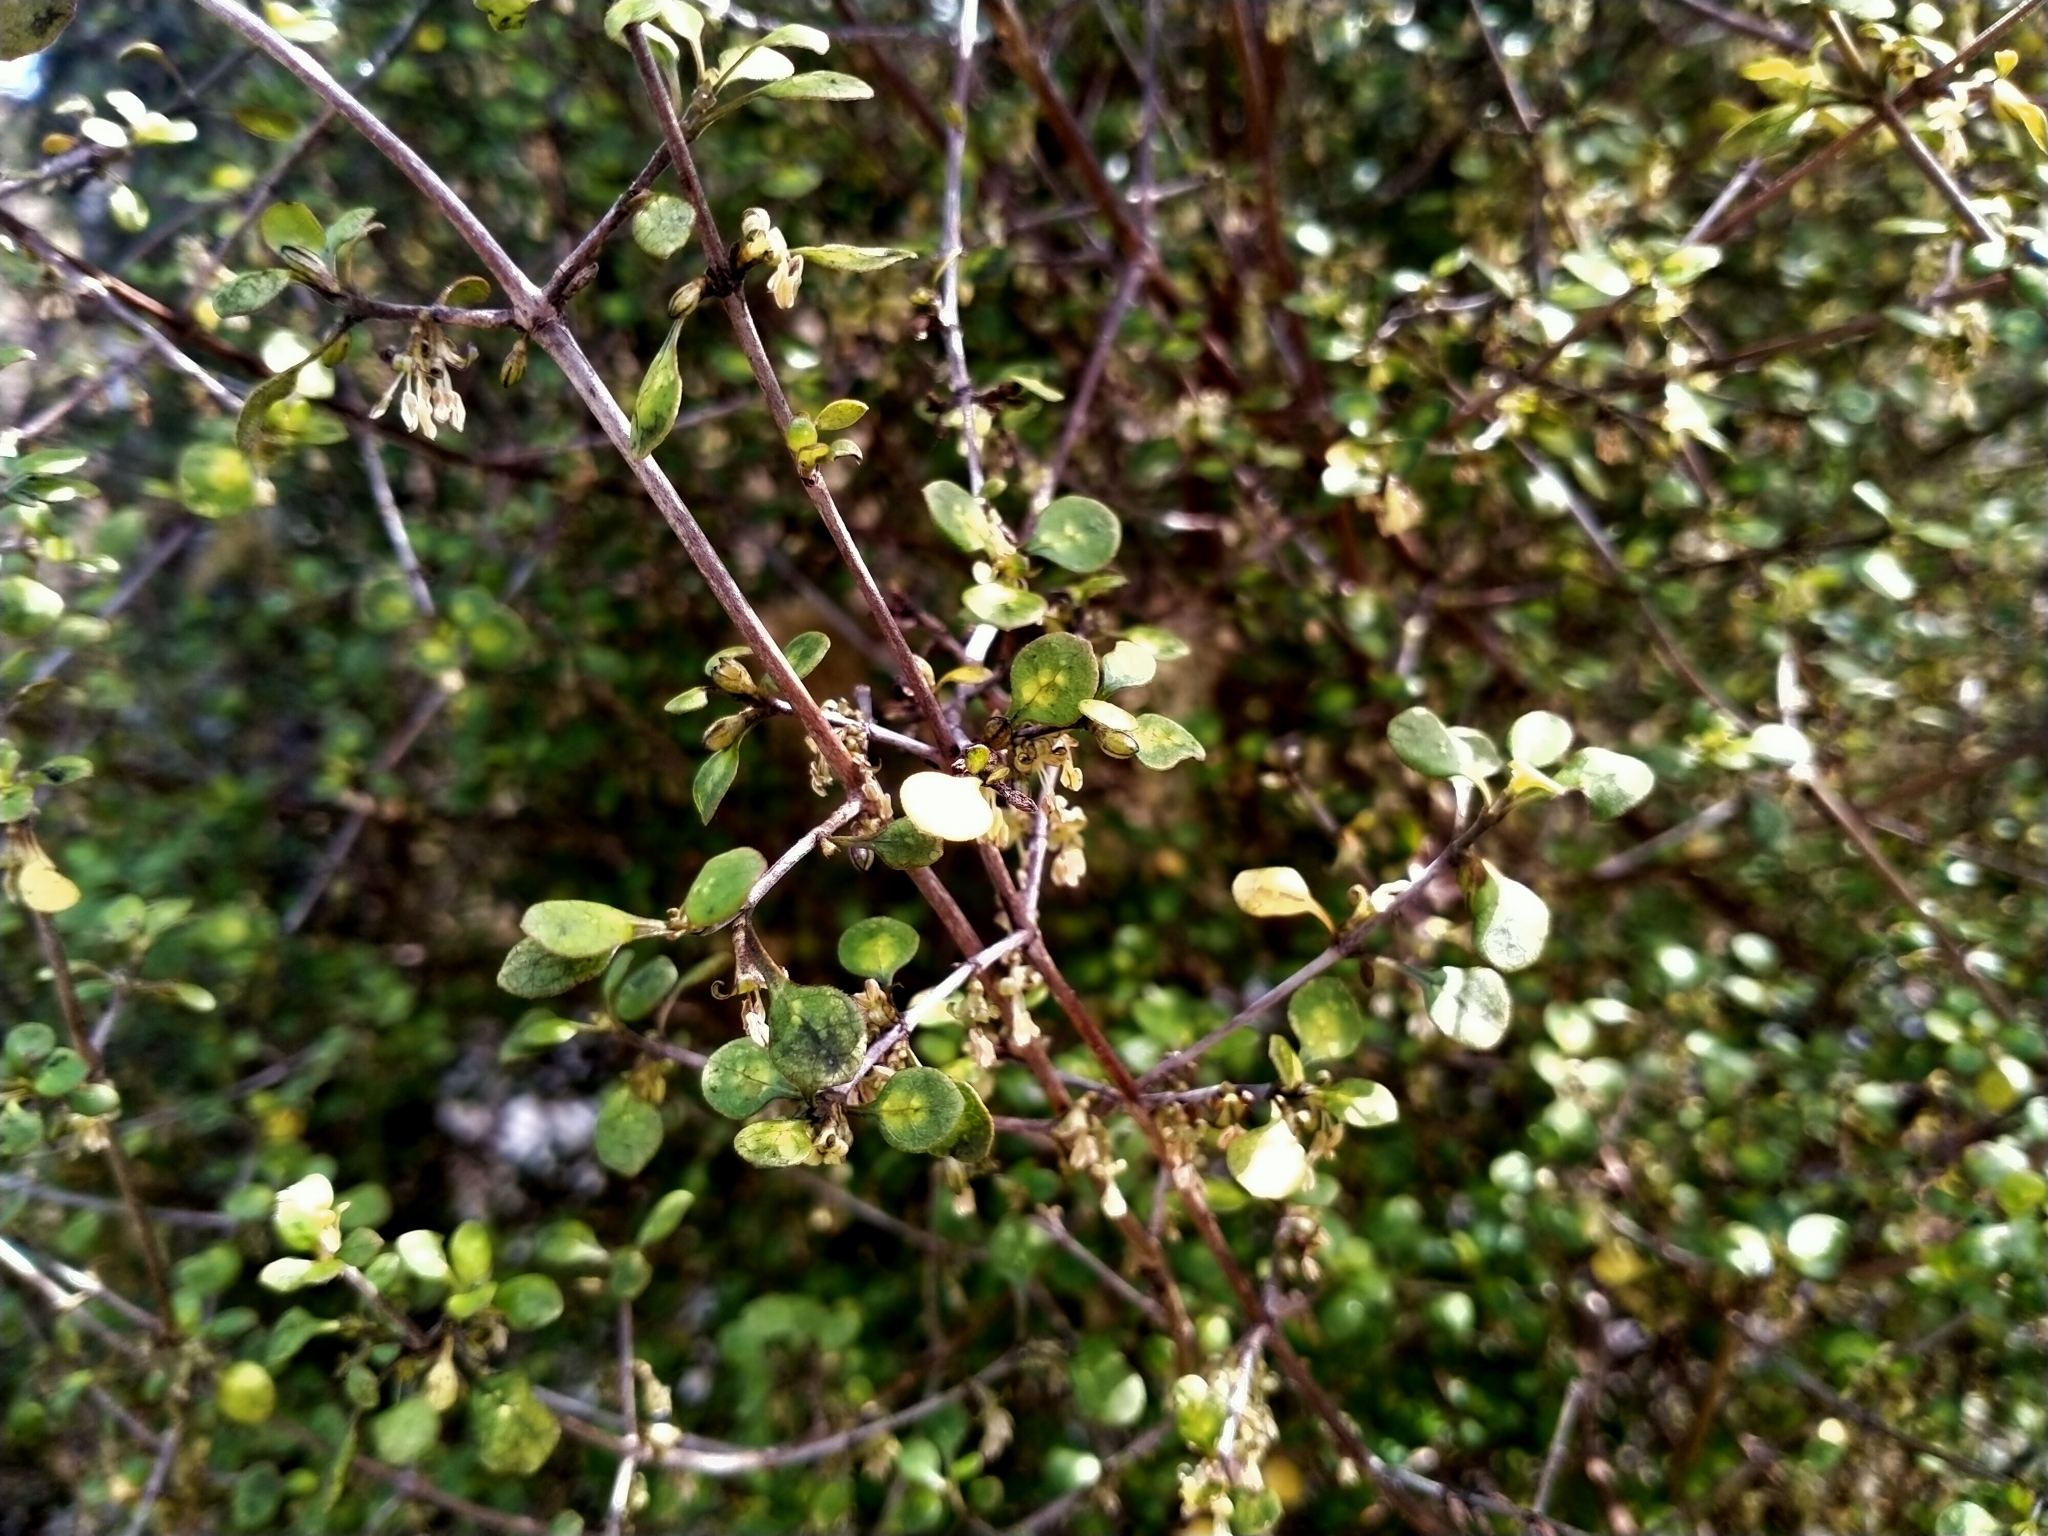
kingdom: Plantae
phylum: Tracheophyta
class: Magnoliopsida
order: Gentianales
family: Rubiaceae
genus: Coprosma
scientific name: Coprosma tenuicaulis
